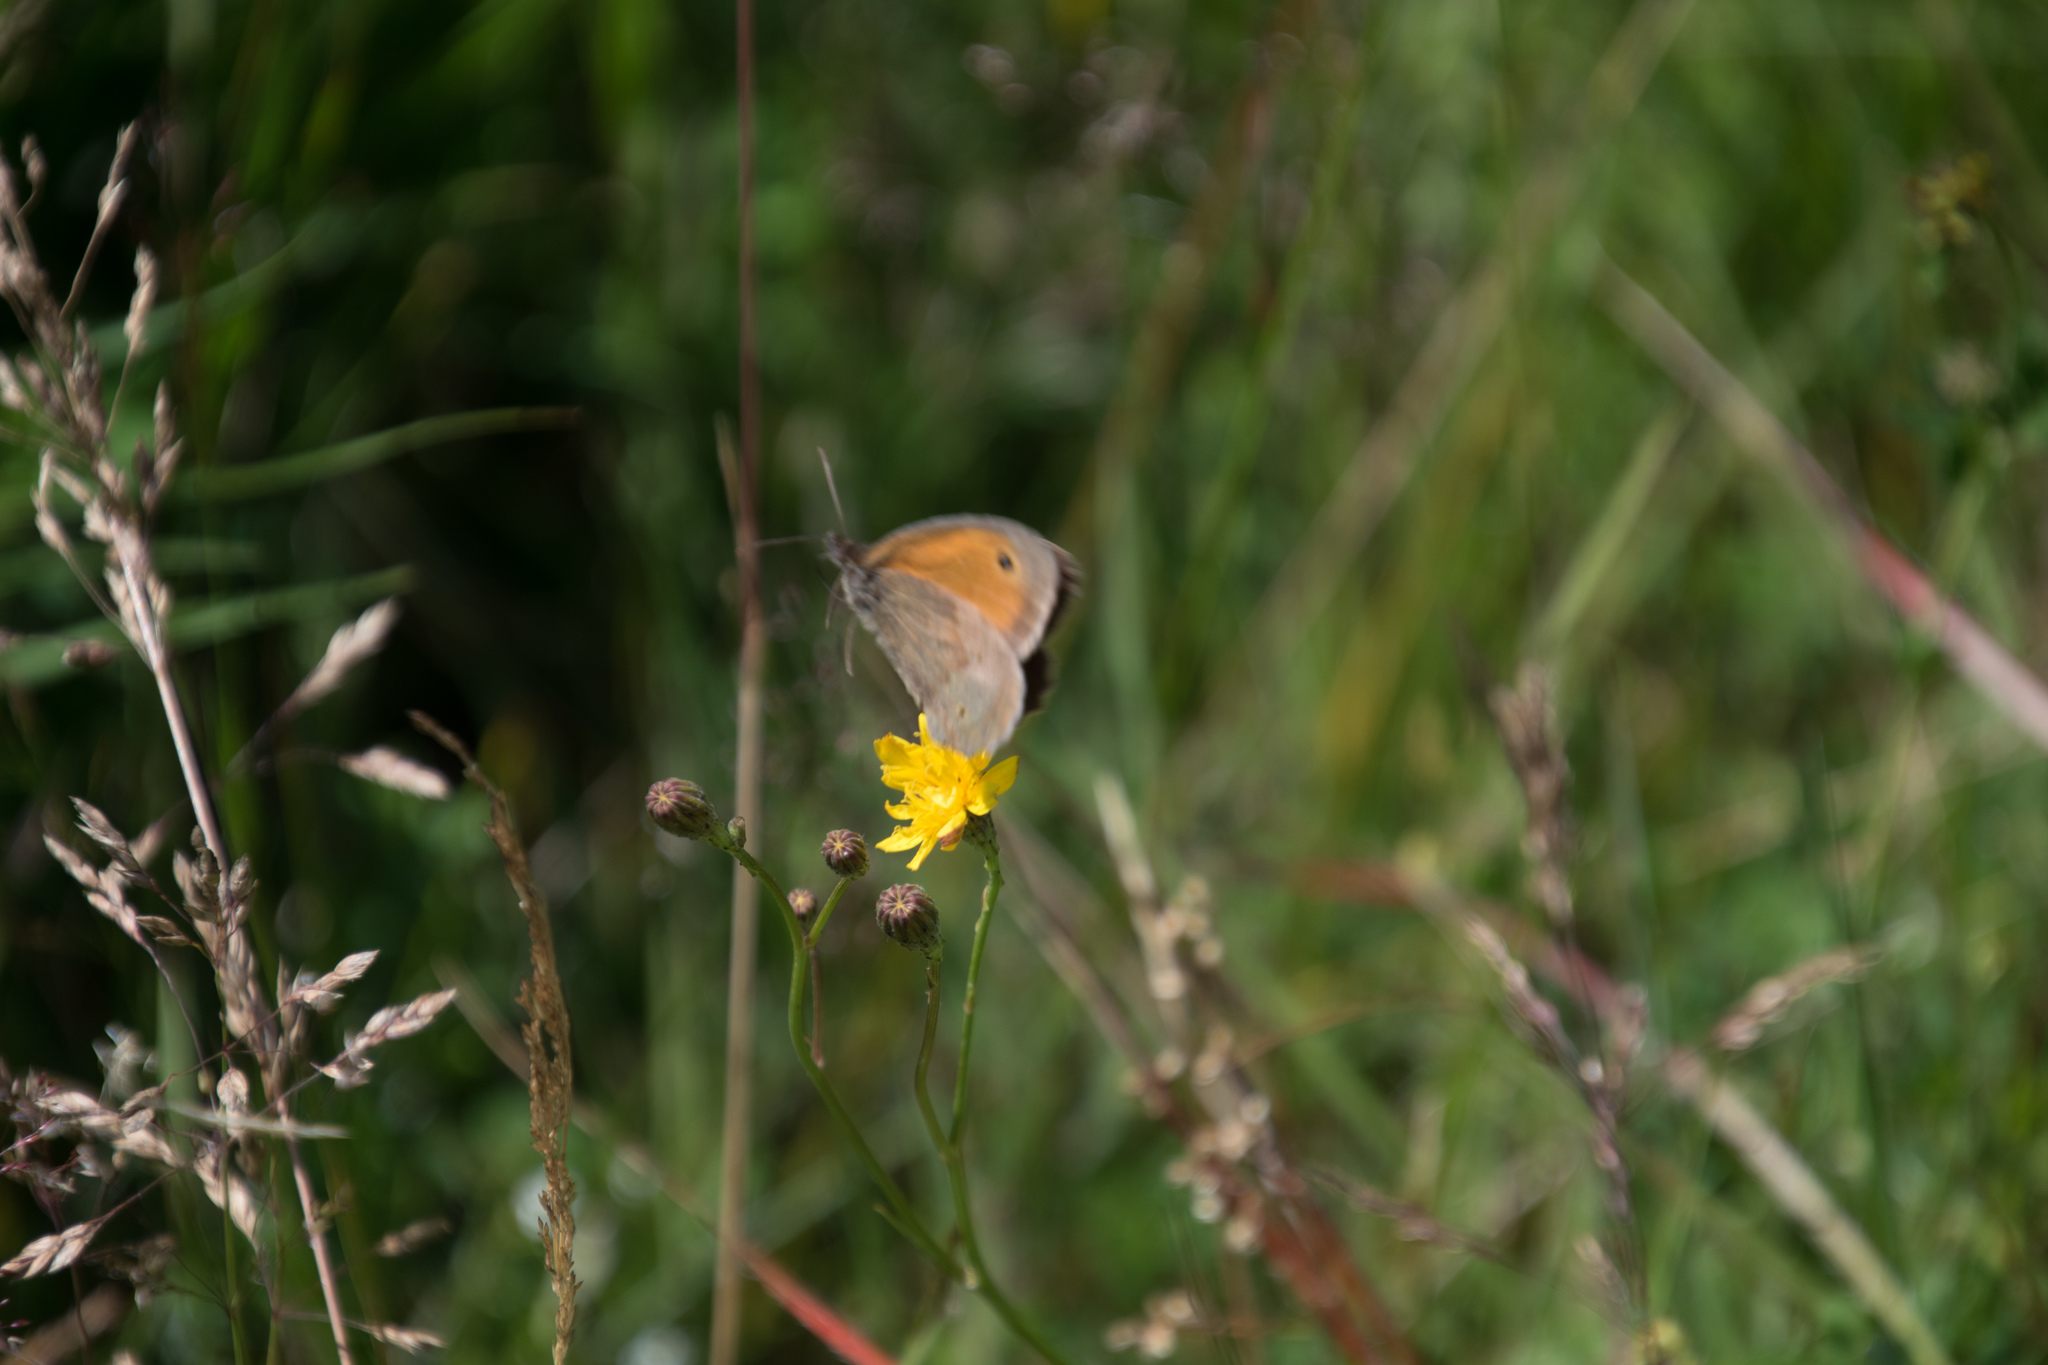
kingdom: Animalia
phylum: Arthropoda
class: Insecta
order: Lepidoptera
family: Nymphalidae
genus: Maniola
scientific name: Maniola jurtina
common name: Meadow brown
